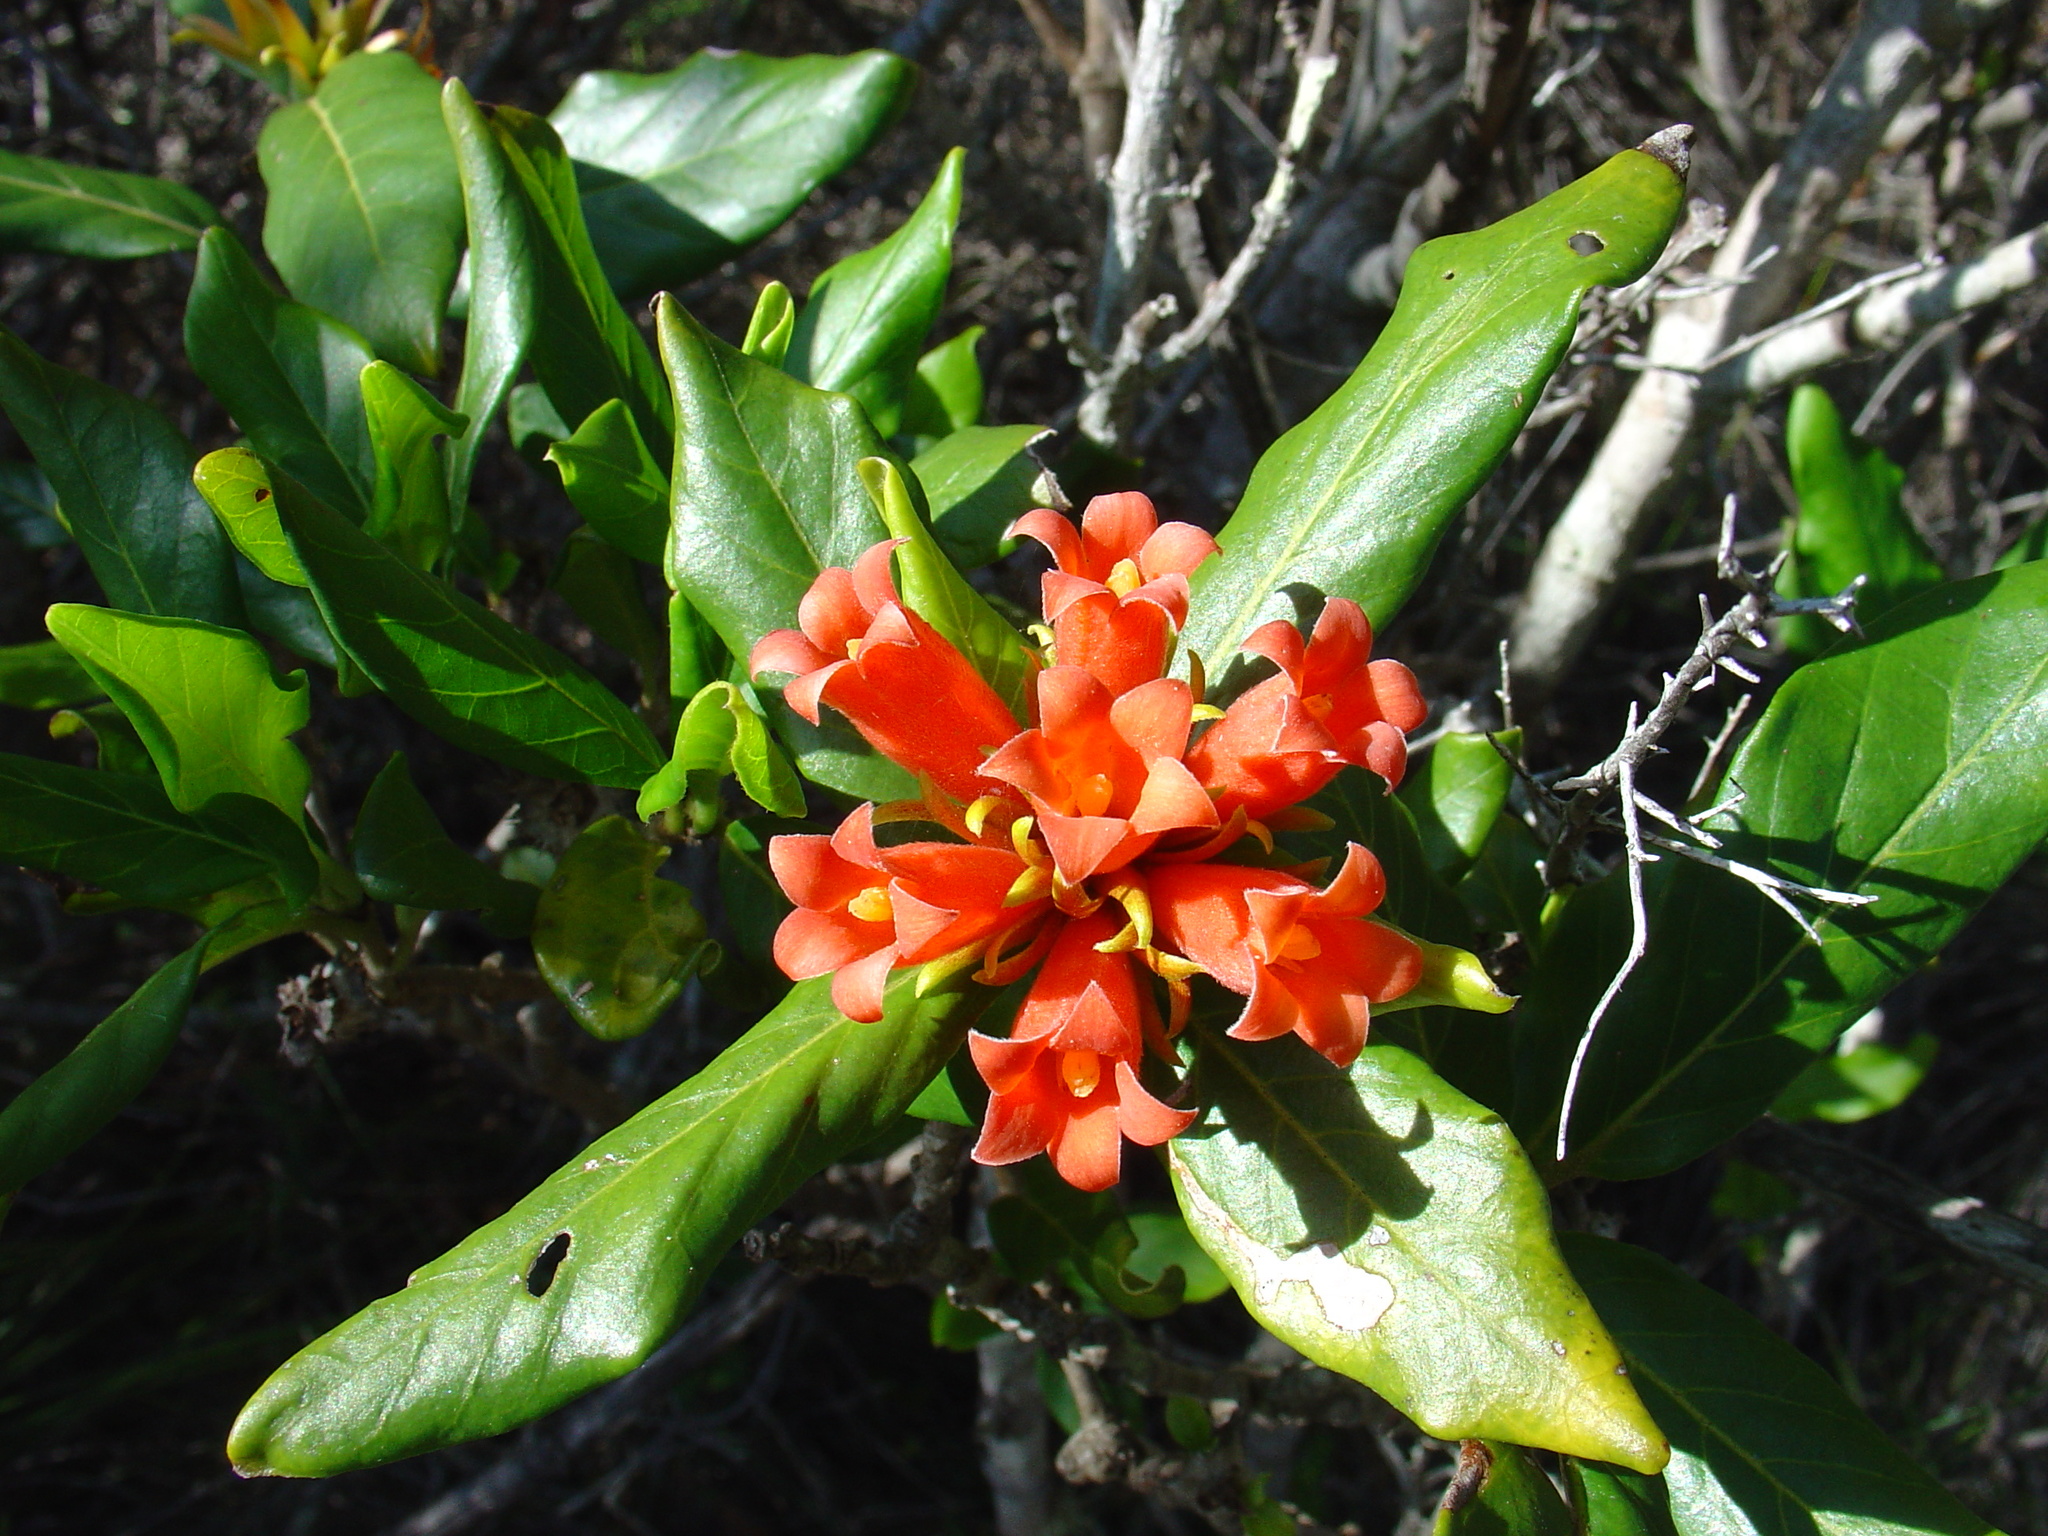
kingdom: Plantae
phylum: Tracheophyta
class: Magnoliopsida
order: Gentianales
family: Rubiaceae
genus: Burchellia
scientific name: Burchellia bubalina
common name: Wild pomegranate
